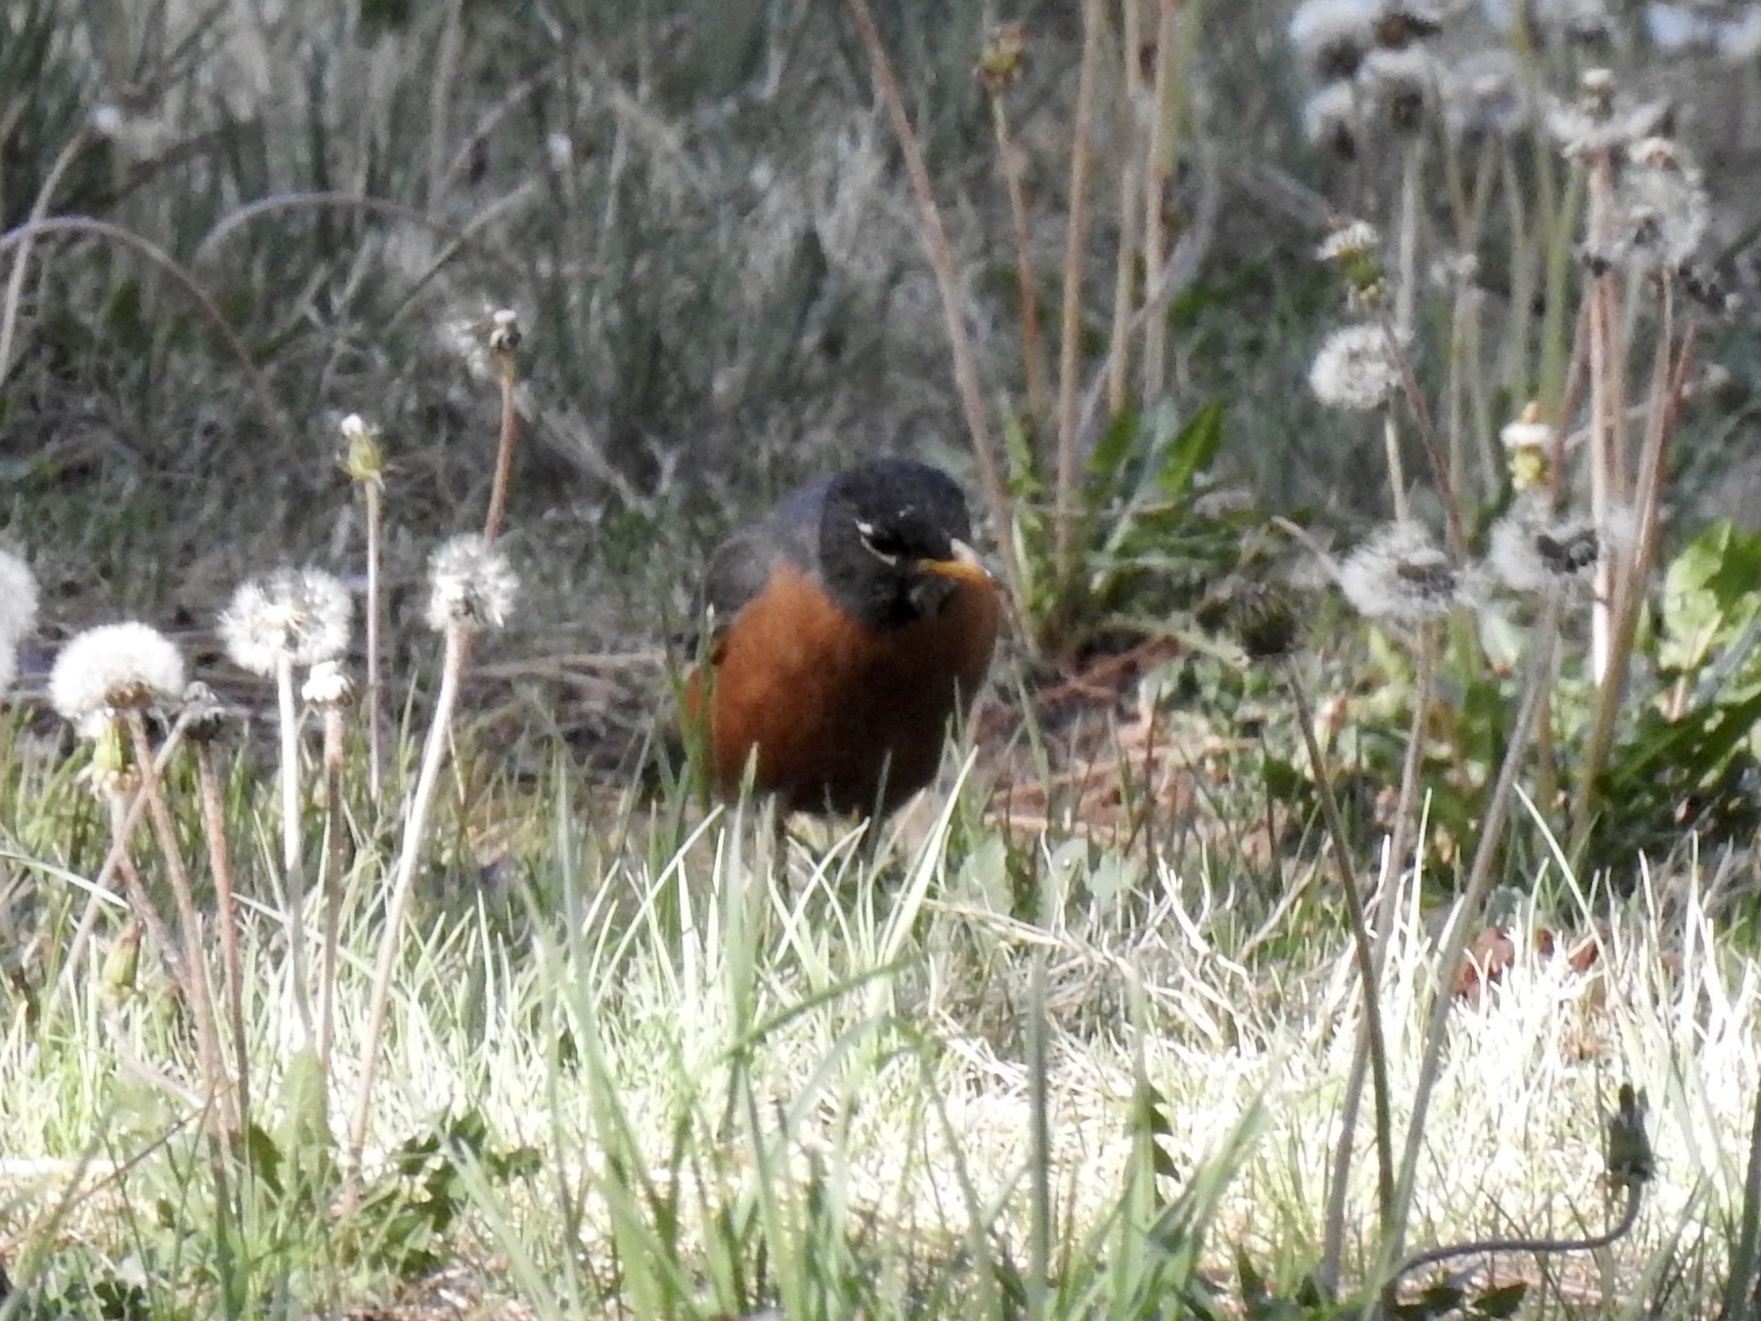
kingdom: Animalia
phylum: Chordata
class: Aves
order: Passeriformes
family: Turdidae
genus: Turdus
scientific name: Turdus migratorius
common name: American robin
